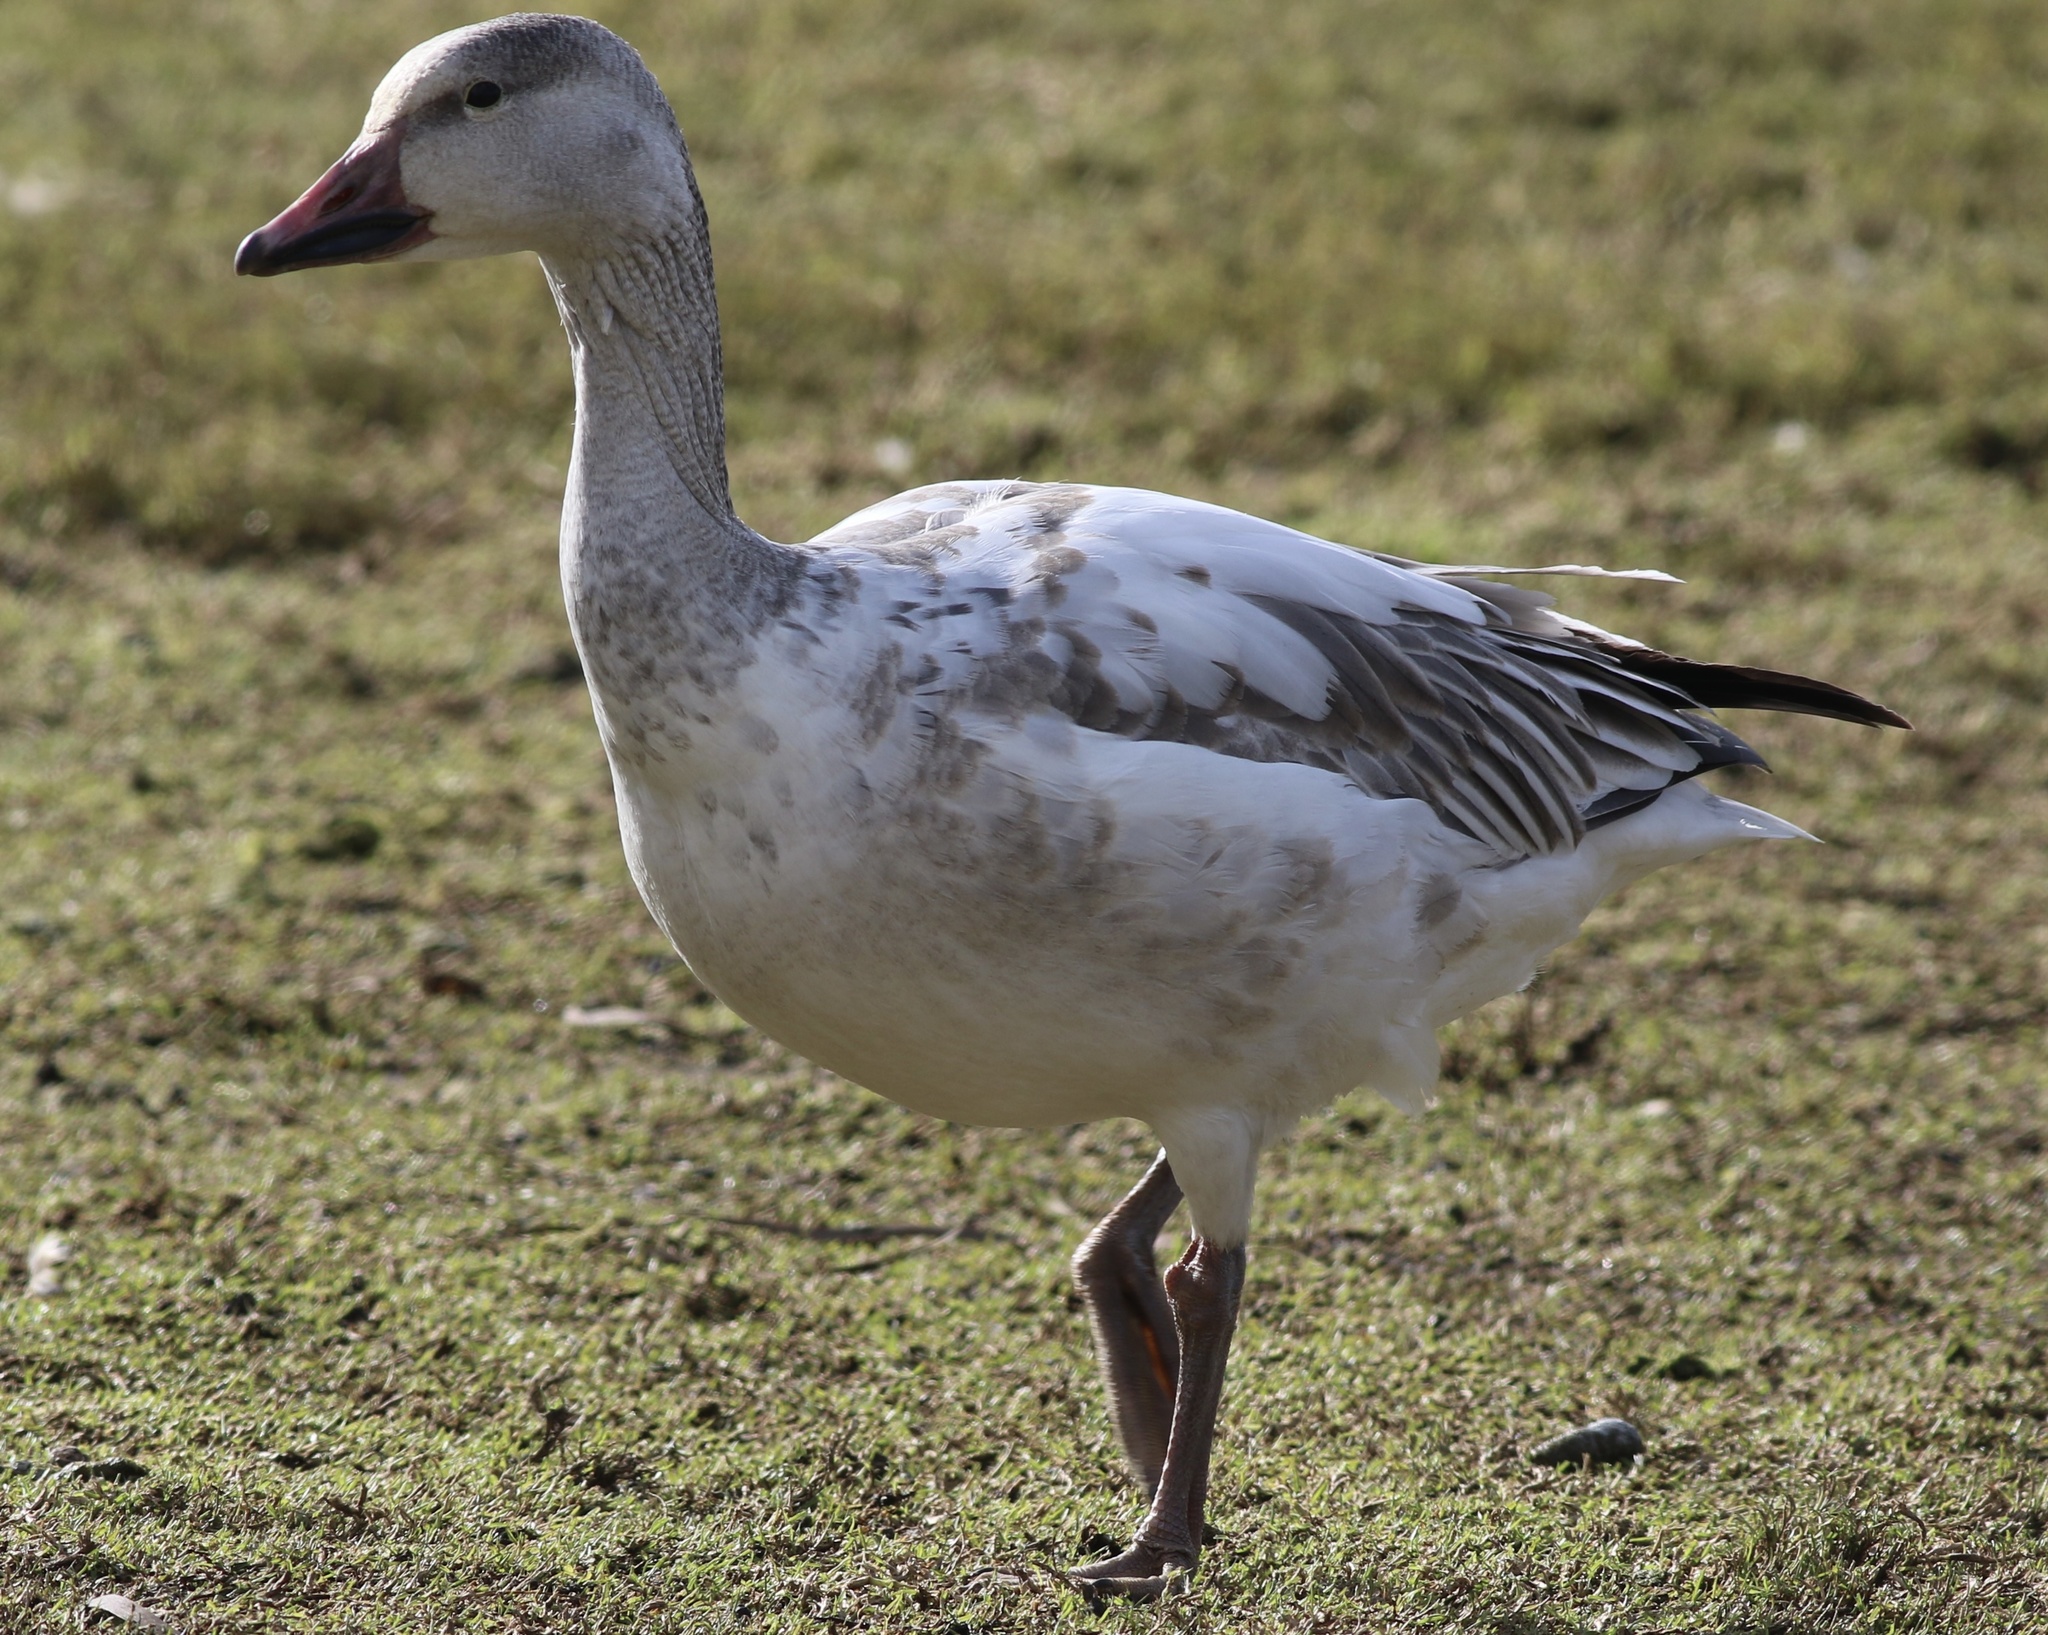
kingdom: Animalia
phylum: Chordata
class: Aves
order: Anseriformes
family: Anatidae
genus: Anser
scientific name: Anser caerulescens
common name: Snow goose
